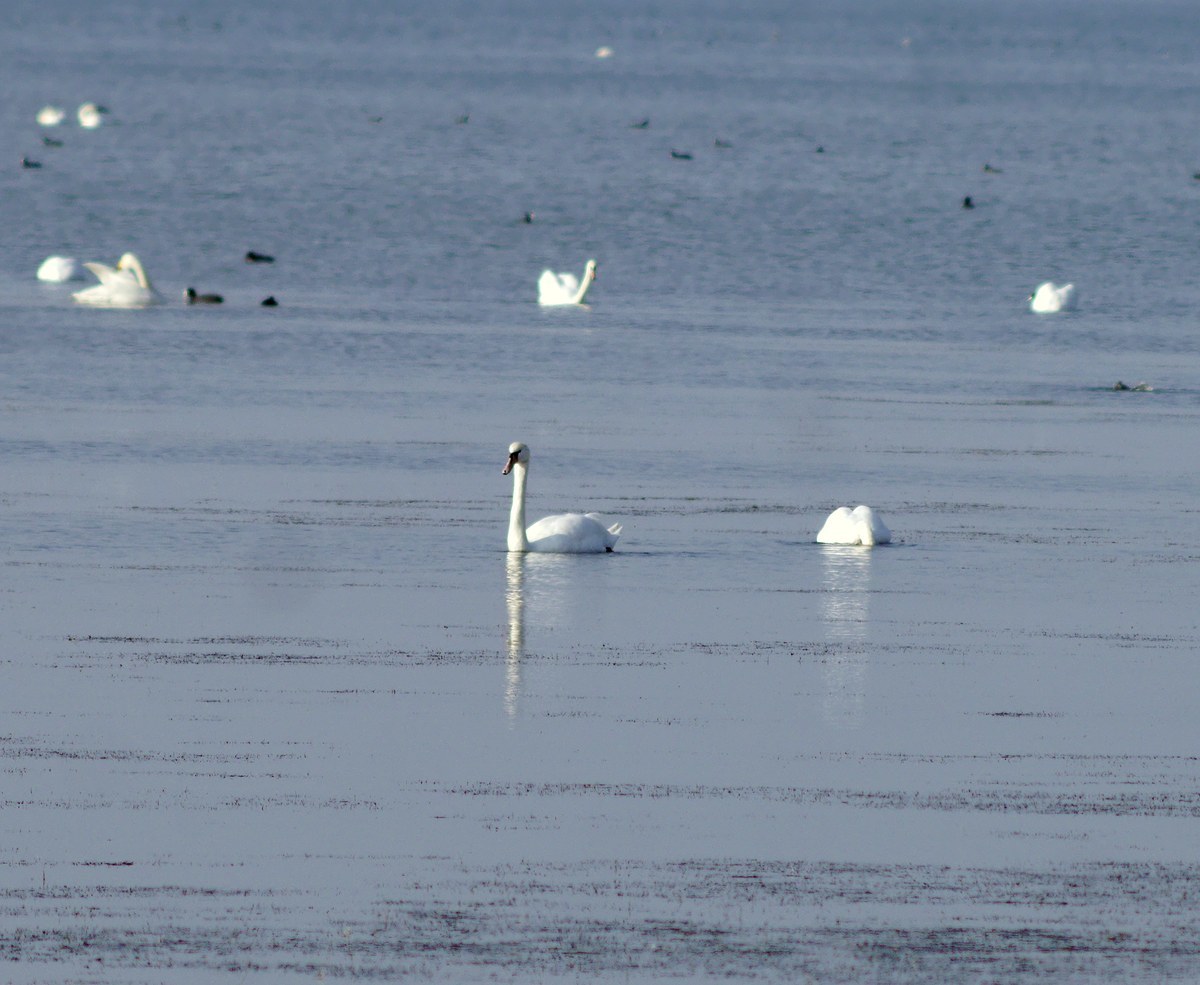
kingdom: Animalia
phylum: Chordata
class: Aves
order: Anseriformes
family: Anatidae
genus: Cygnus
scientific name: Cygnus olor
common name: Mute swan
